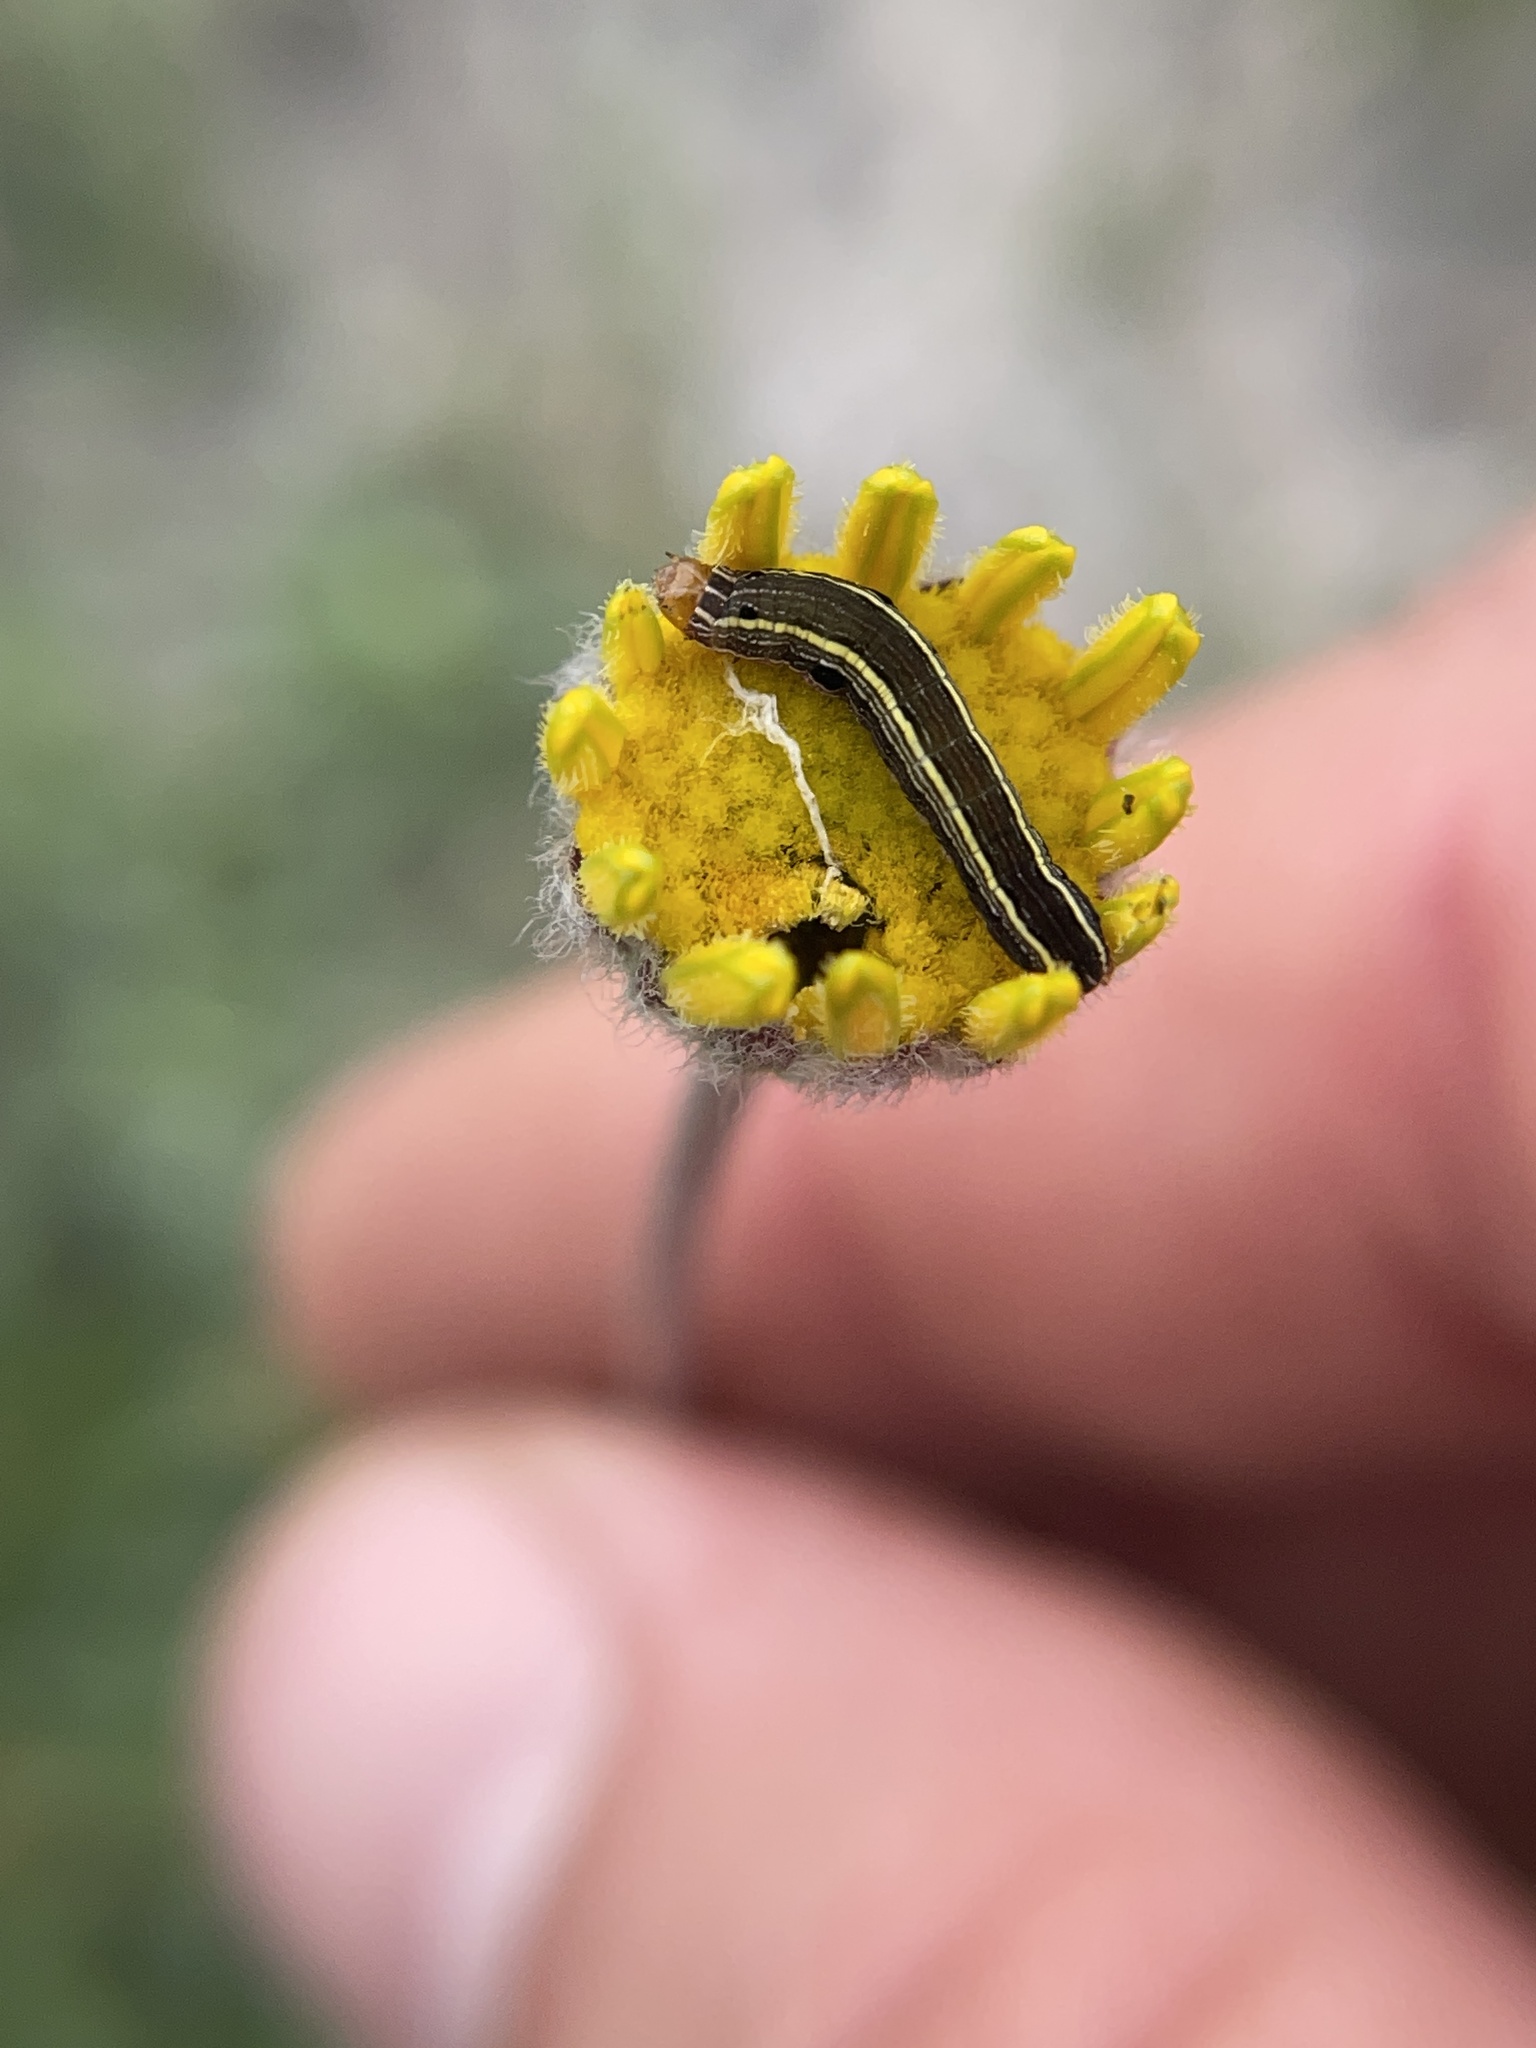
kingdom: Animalia
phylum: Arthropoda
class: Insecta
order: Lepidoptera
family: Noctuidae
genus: Spodoptera
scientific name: Spodoptera ornithogalli
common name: Yellow-striped armyworm
